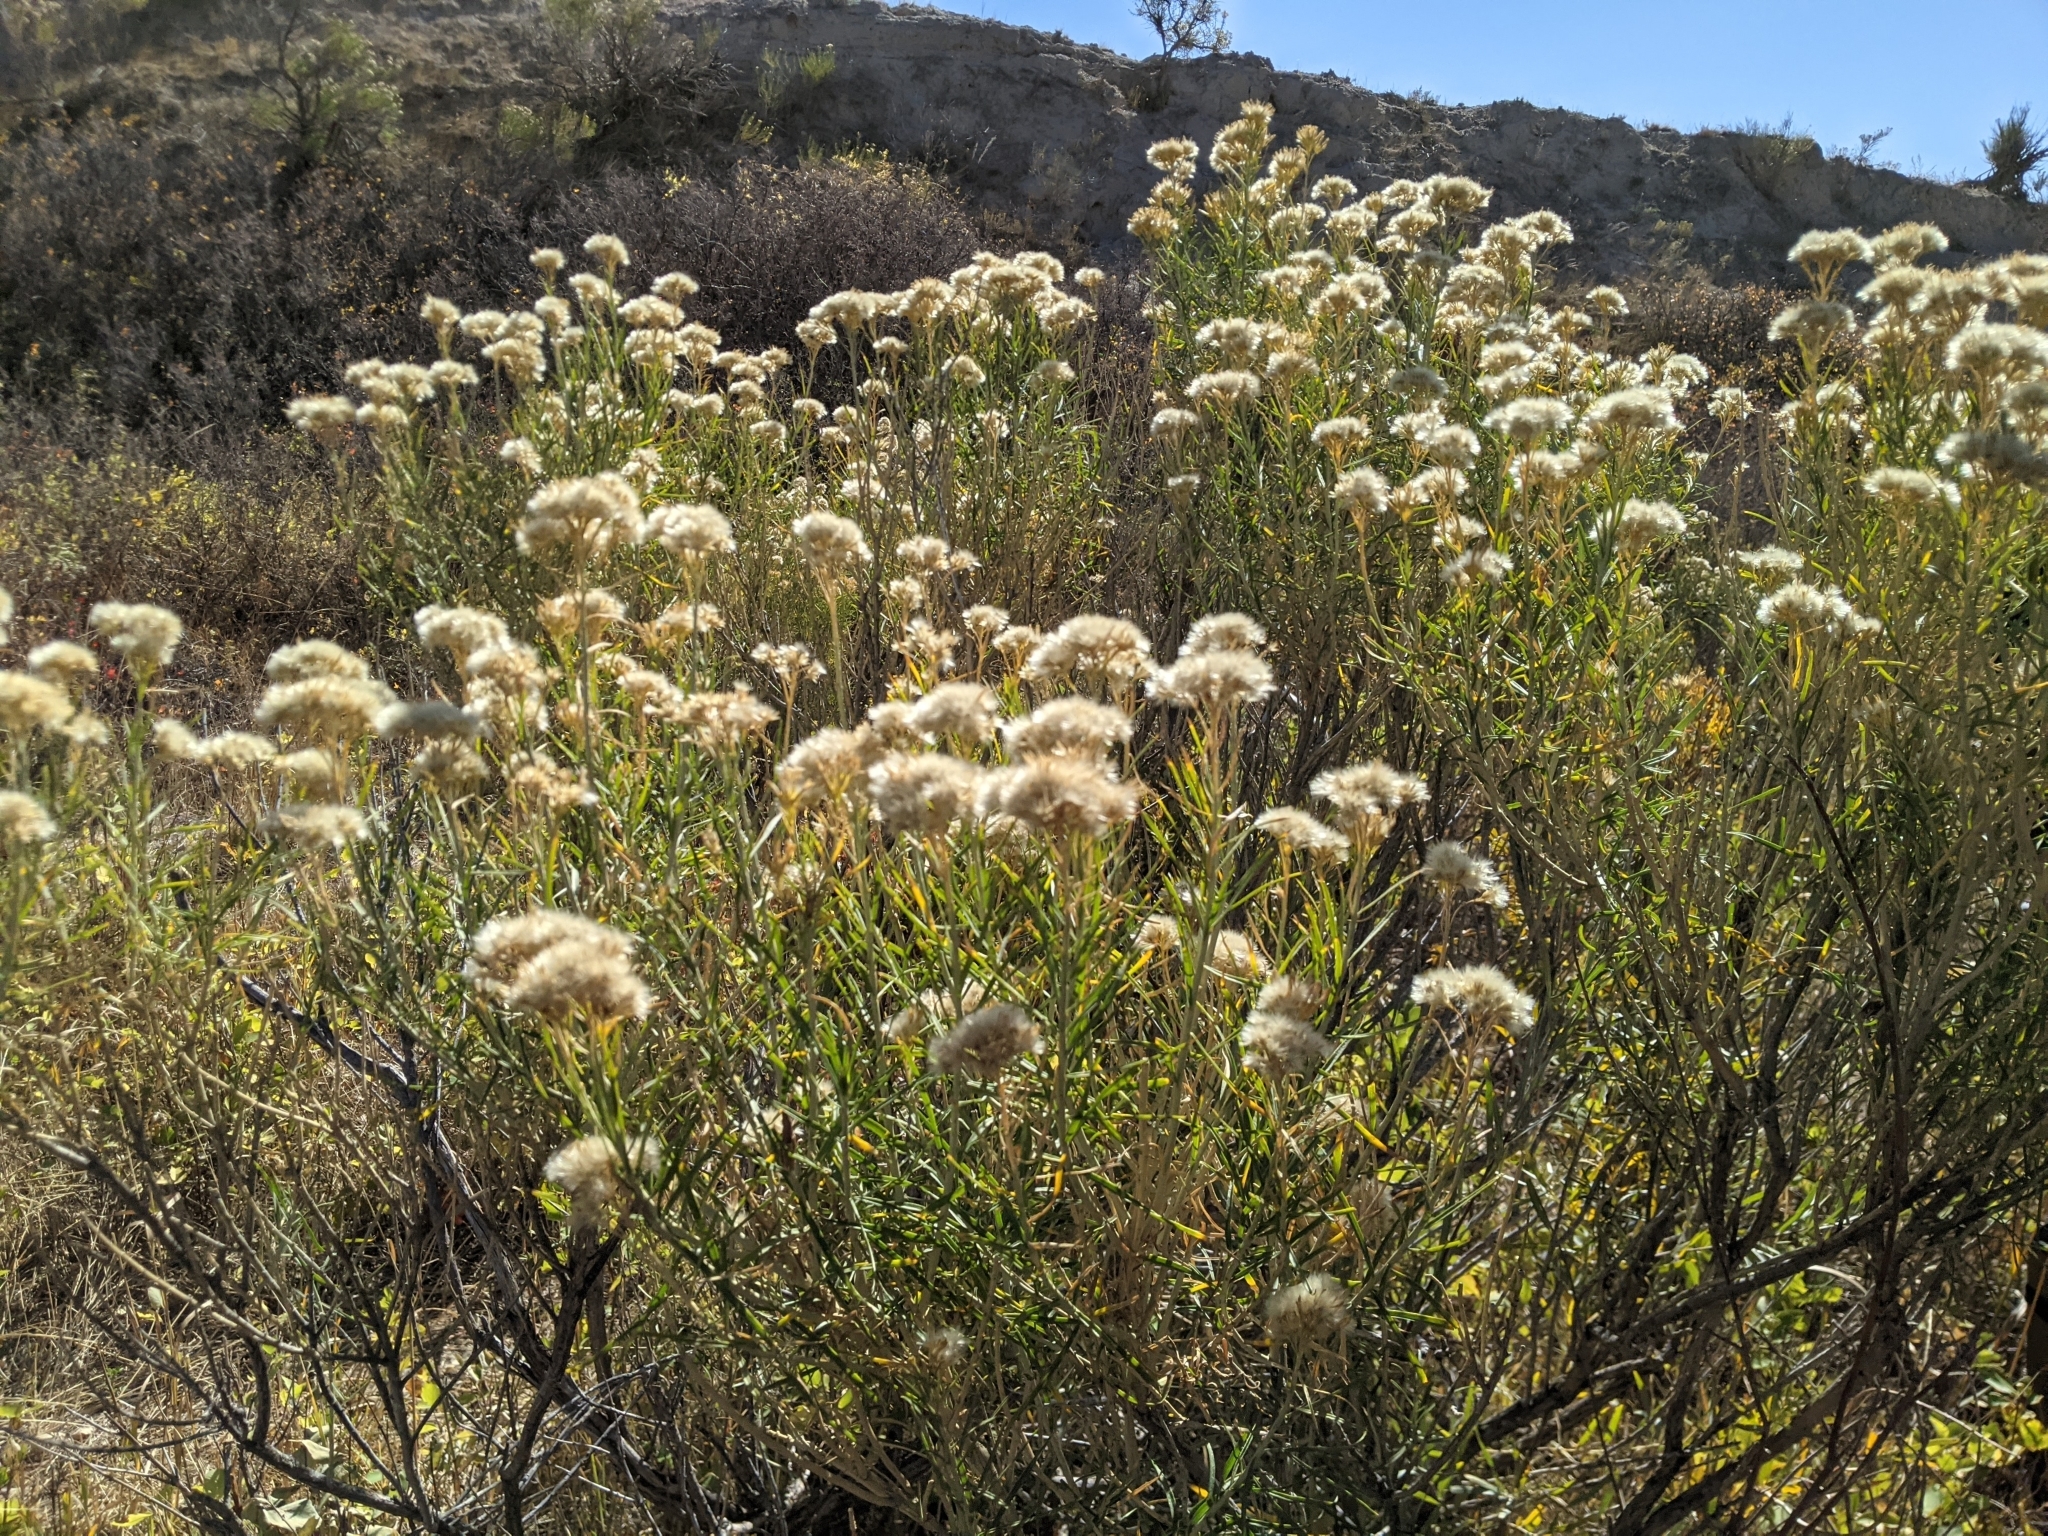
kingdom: Plantae
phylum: Tracheophyta
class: Magnoliopsida
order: Asterales
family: Asteraceae
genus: Ericameria
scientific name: Ericameria nauseosa
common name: Rubber rabbitbrush
